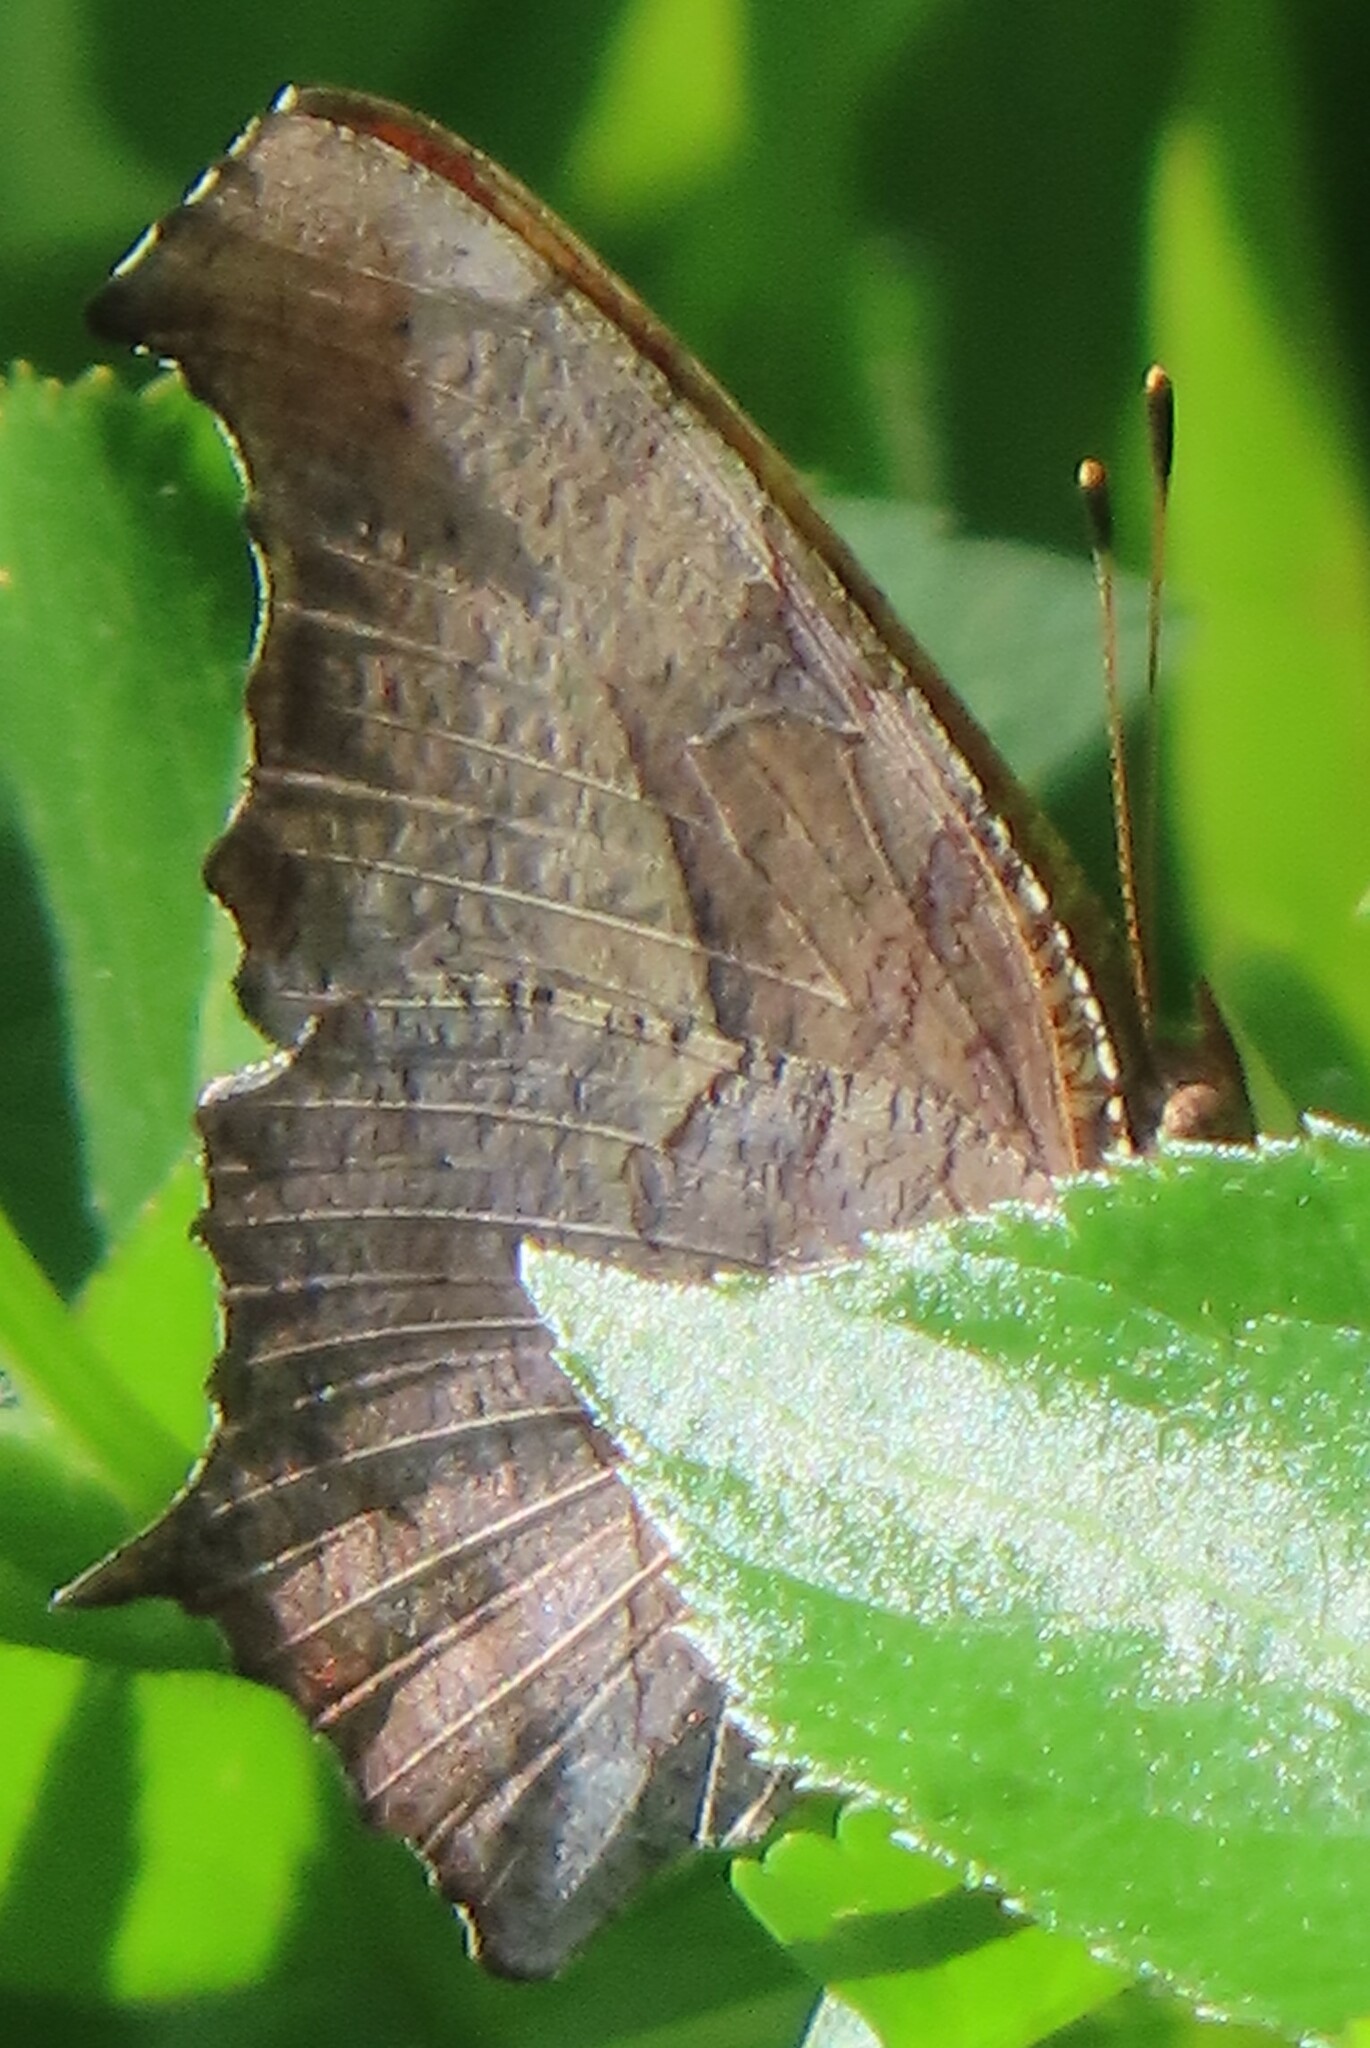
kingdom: Animalia
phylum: Arthropoda
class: Insecta
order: Lepidoptera
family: Nymphalidae
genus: Polygonia
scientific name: Polygonia interrogationis
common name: Question mark
